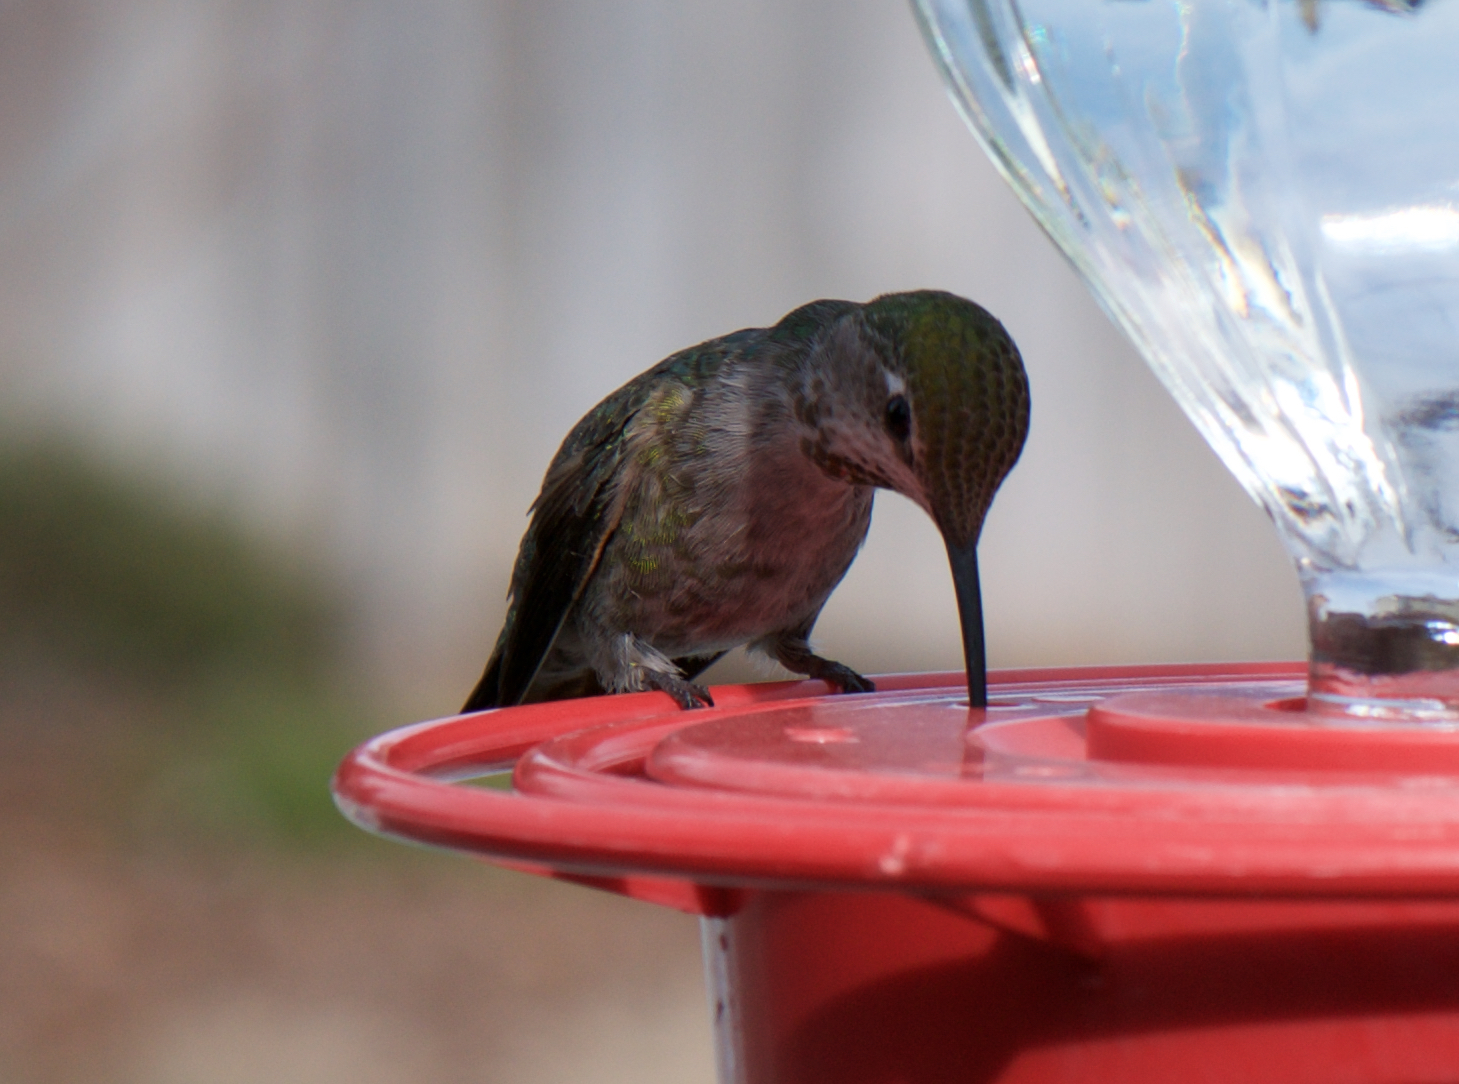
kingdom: Animalia
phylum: Chordata
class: Aves
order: Apodiformes
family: Trochilidae
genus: Calypte
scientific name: Calypte anna
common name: Anna's hummingbird
